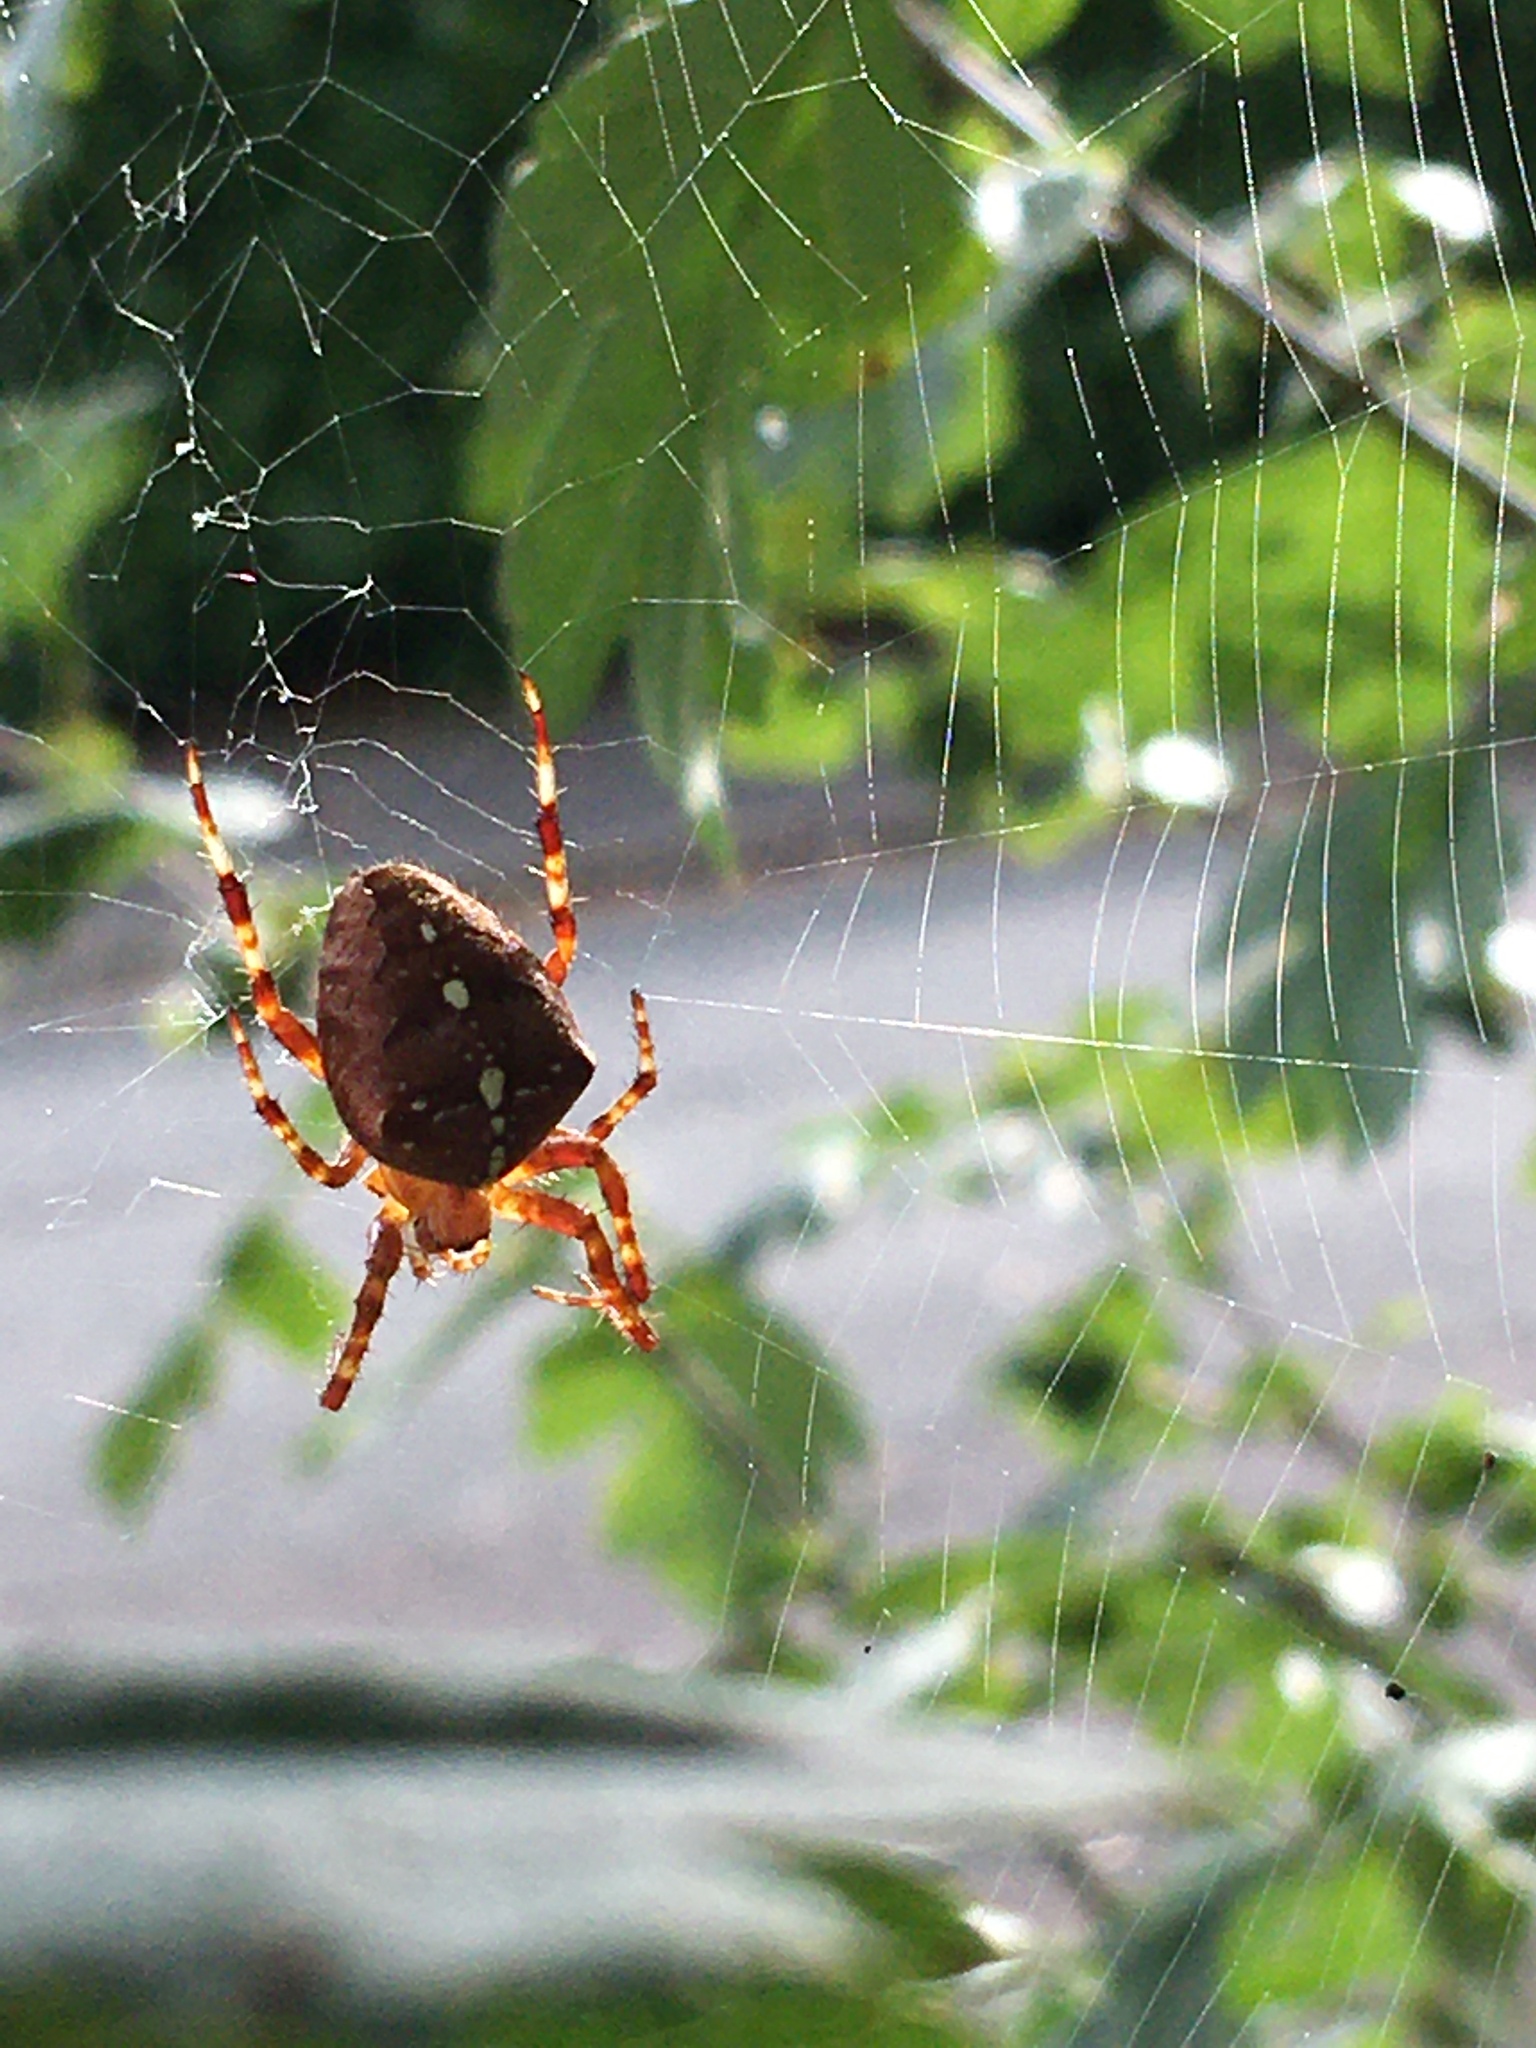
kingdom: Animalia
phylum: Arthropoda
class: Arachnida
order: Araneae
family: Araneidae
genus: Araneus
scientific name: Araneus diadematus
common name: Cross orbweaver
